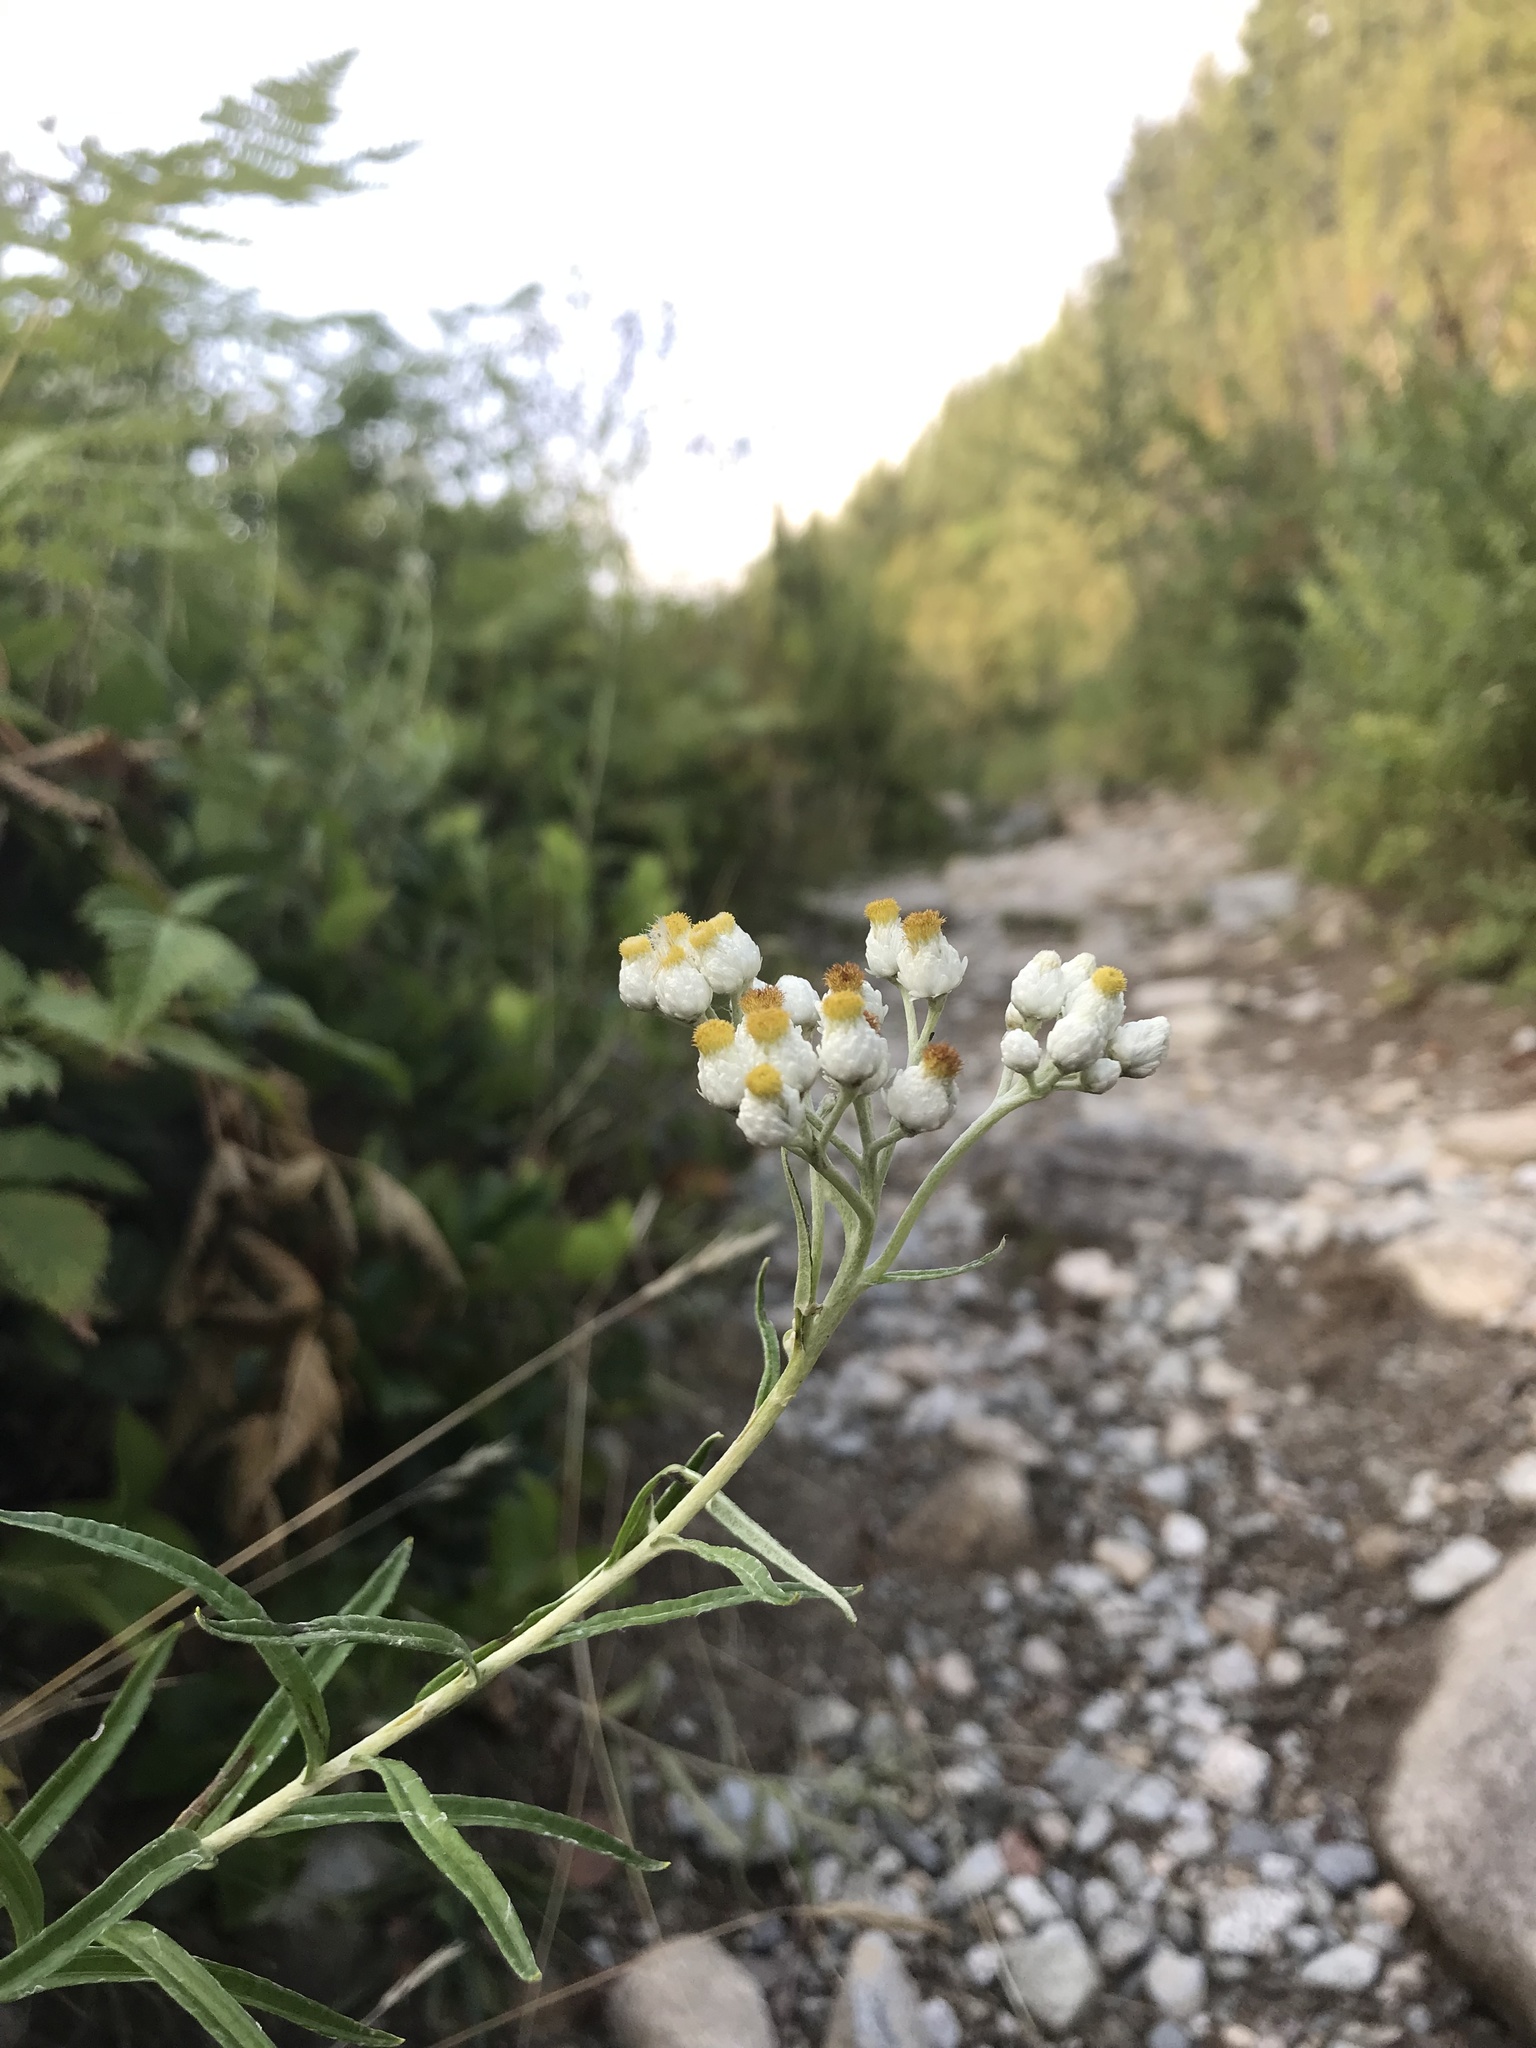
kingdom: Plantae
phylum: Tracheophyta
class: Magnoliopsida
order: Asterales
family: Asteraceae
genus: Anaphalis
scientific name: Anaphalis margaritacea
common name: Pearly everlasting
